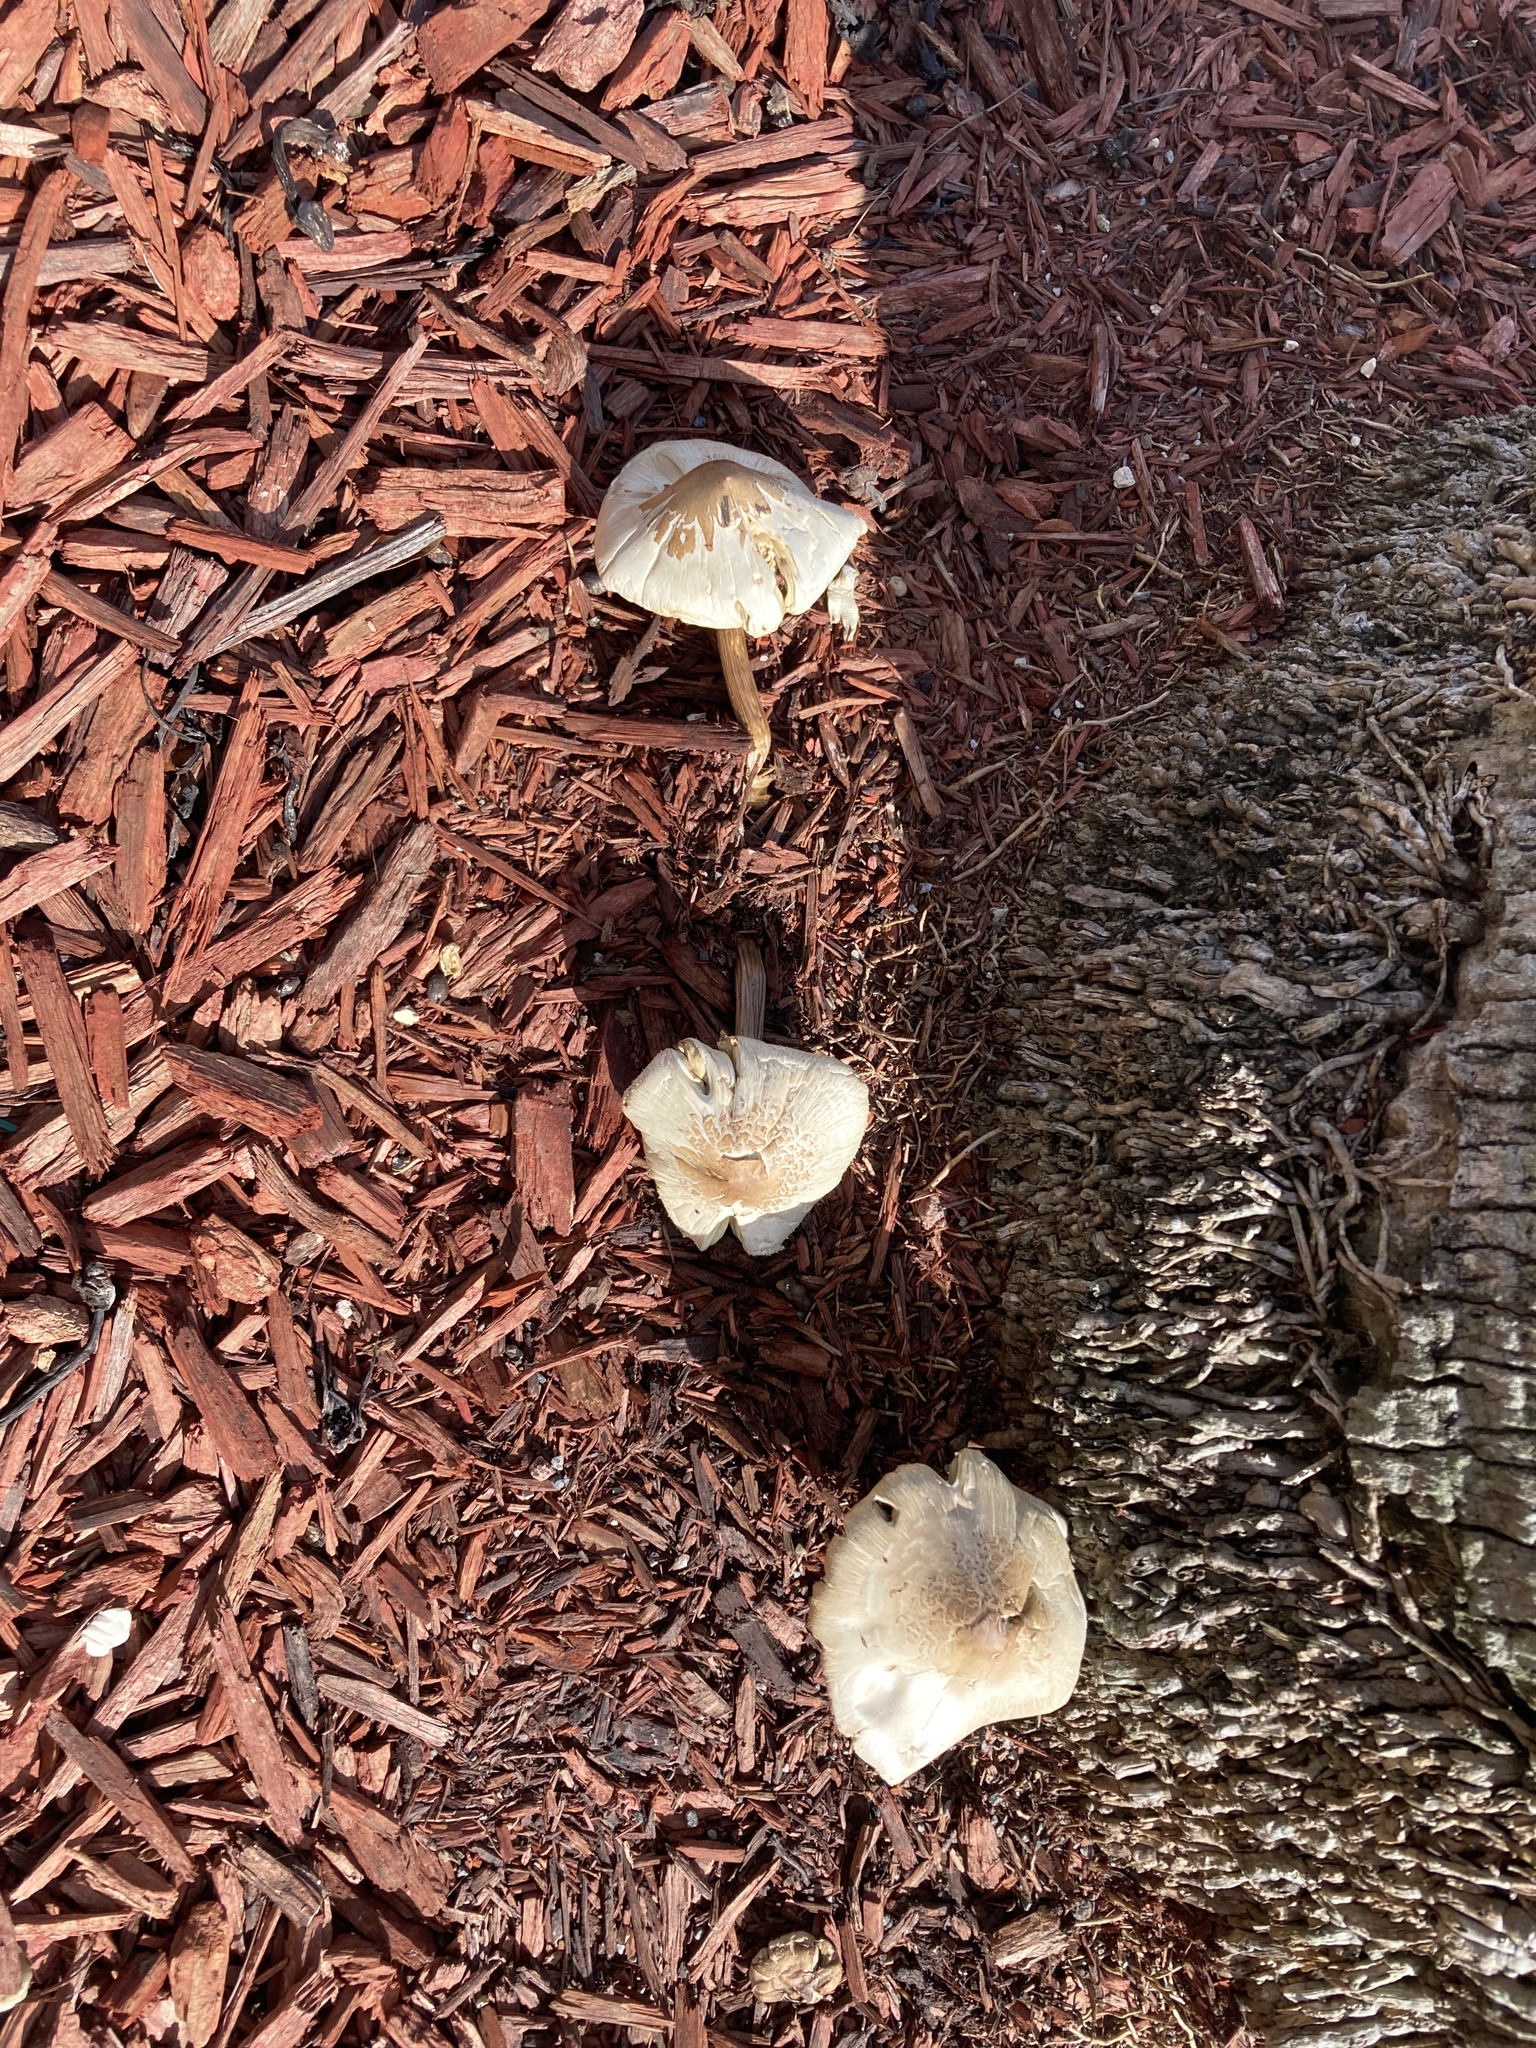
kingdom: Fungi
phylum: Basidiomycota
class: Agaricomycetes
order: Agaricales
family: Agaricaceae
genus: Chlorophyllum
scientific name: Chlorophyllum molybdites
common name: False parasol
